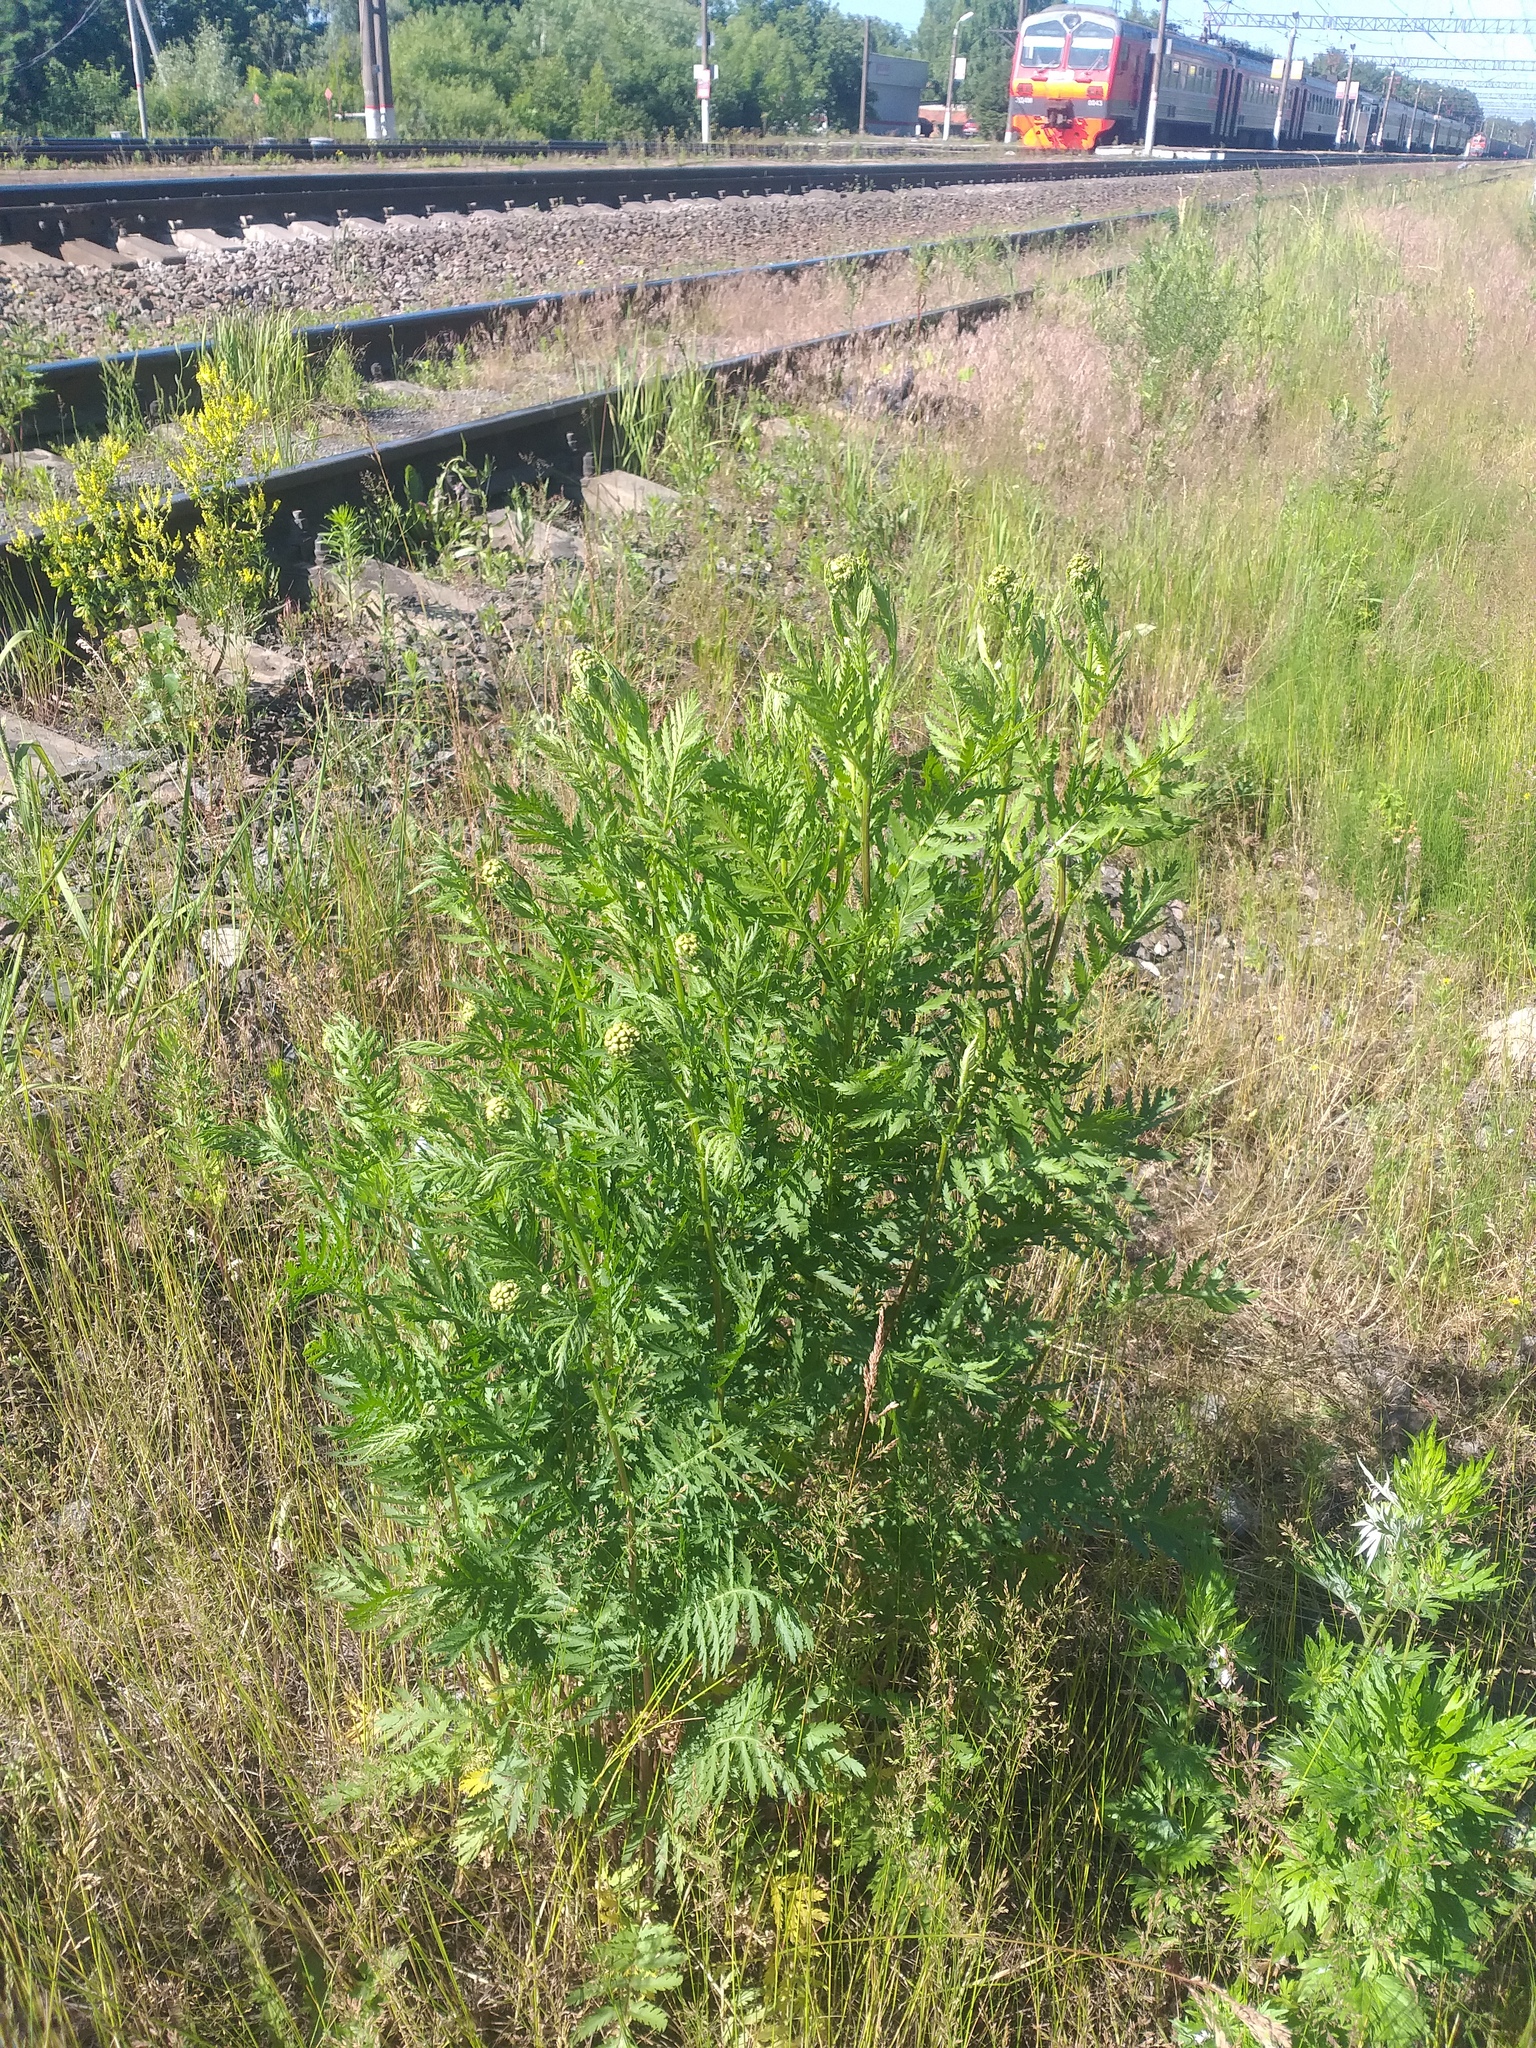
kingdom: Plantae
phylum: Tracheophyta
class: Magnoliopsida
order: Asterales
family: Asteraceae
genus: Tanacetum
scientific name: Tanacetum vulgare
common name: Common tansy
